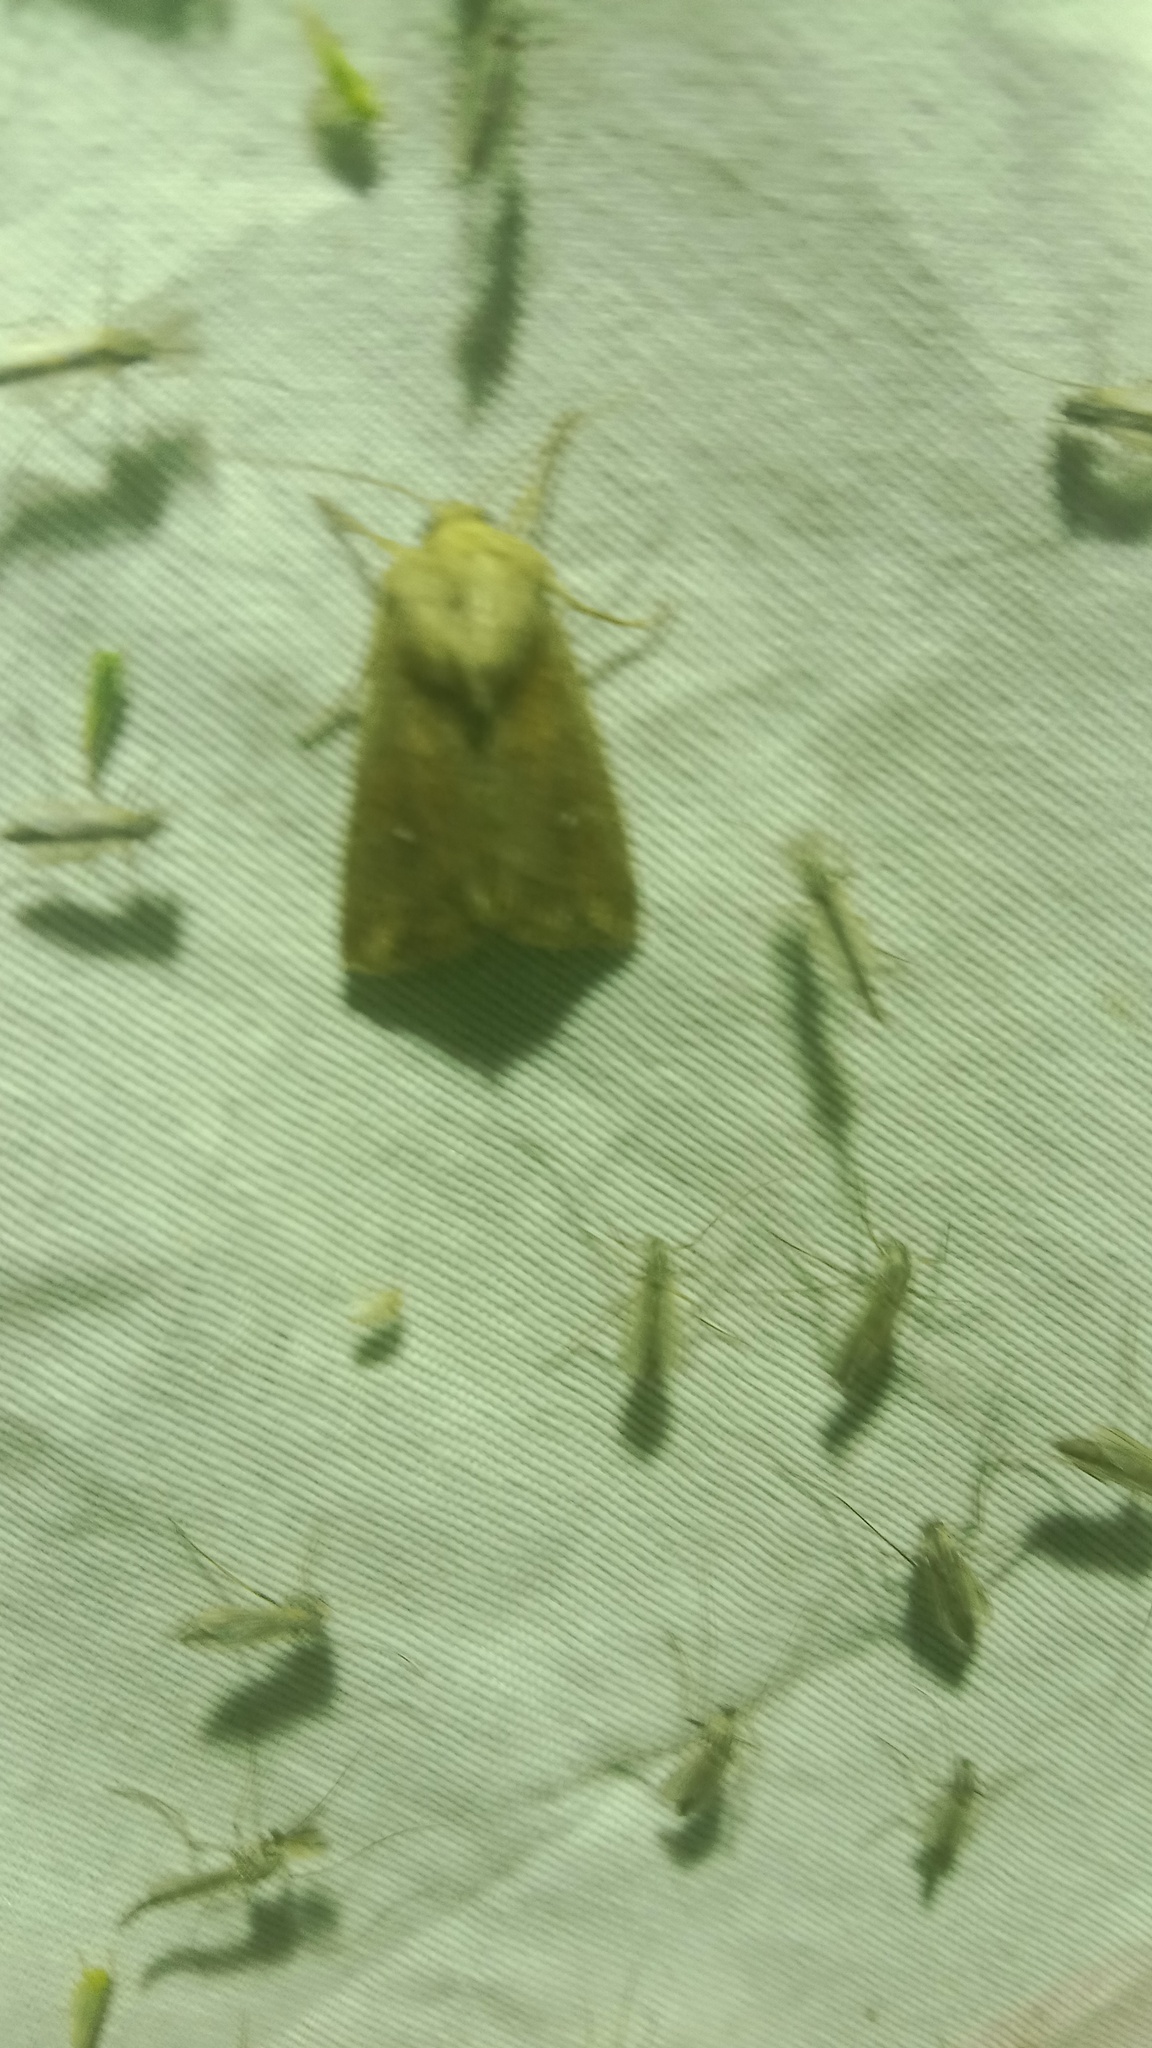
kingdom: Animalia
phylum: Arthropoda
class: Insecta
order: Lepidoptera
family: Noctuidae
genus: Mythimna
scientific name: Mythimna albipuncta
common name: White-point
